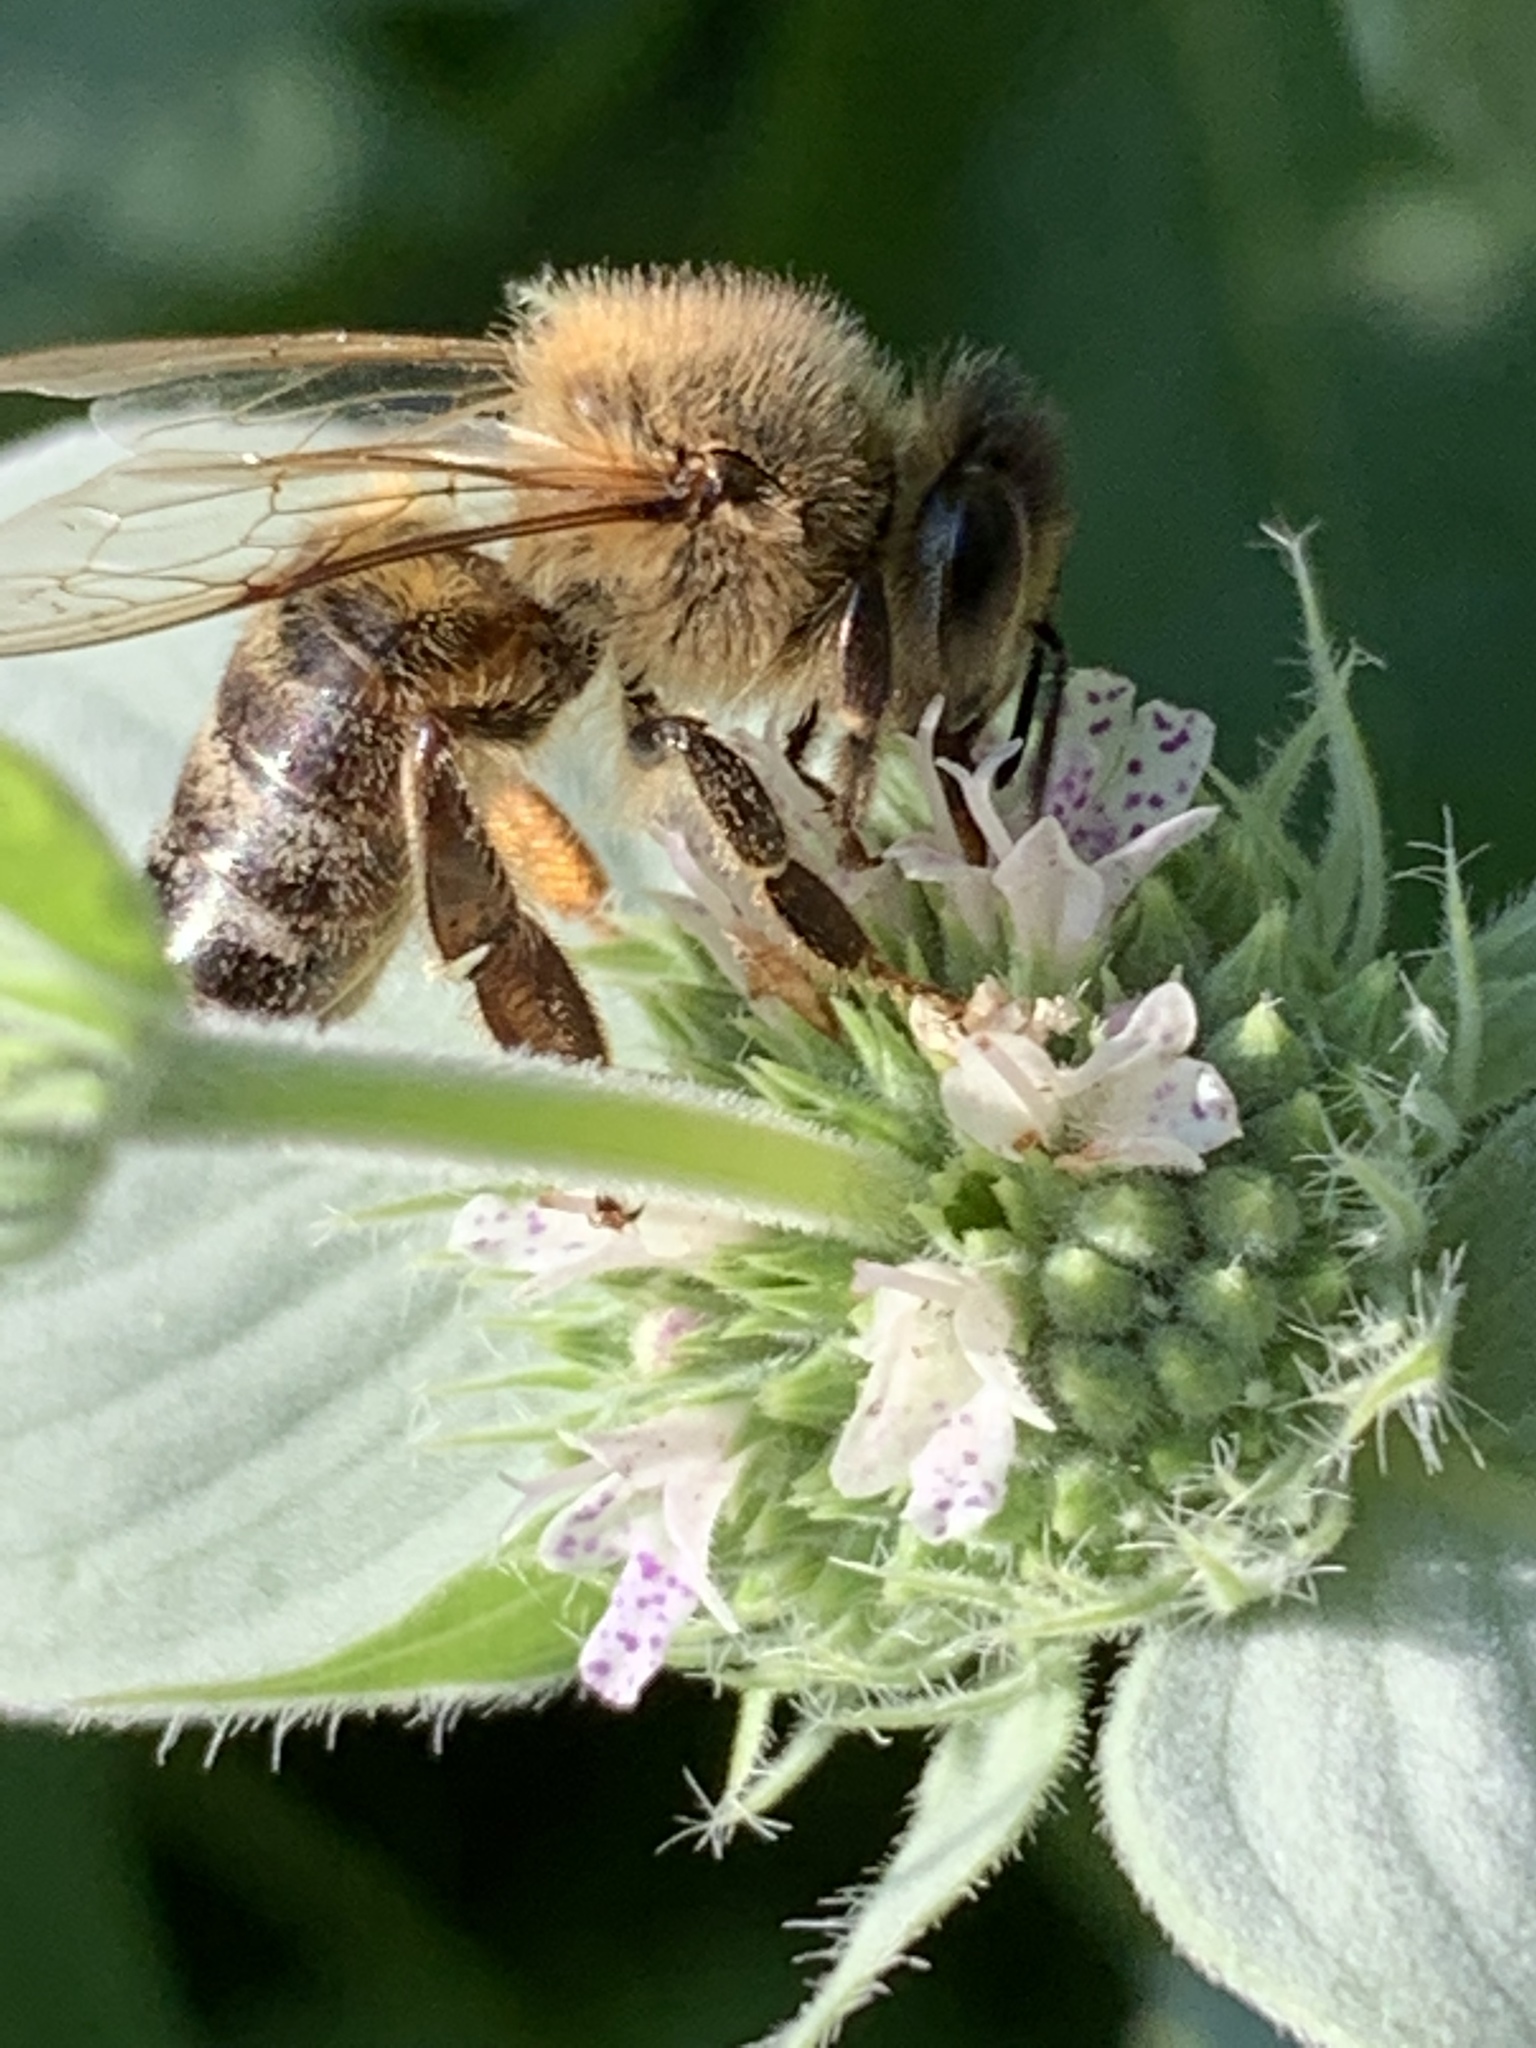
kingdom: Animalia
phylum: Arthropoda
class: Insecta
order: Hymenoptera
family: Apidae
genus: Apis
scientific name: Apis mellifera
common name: Honey bee
